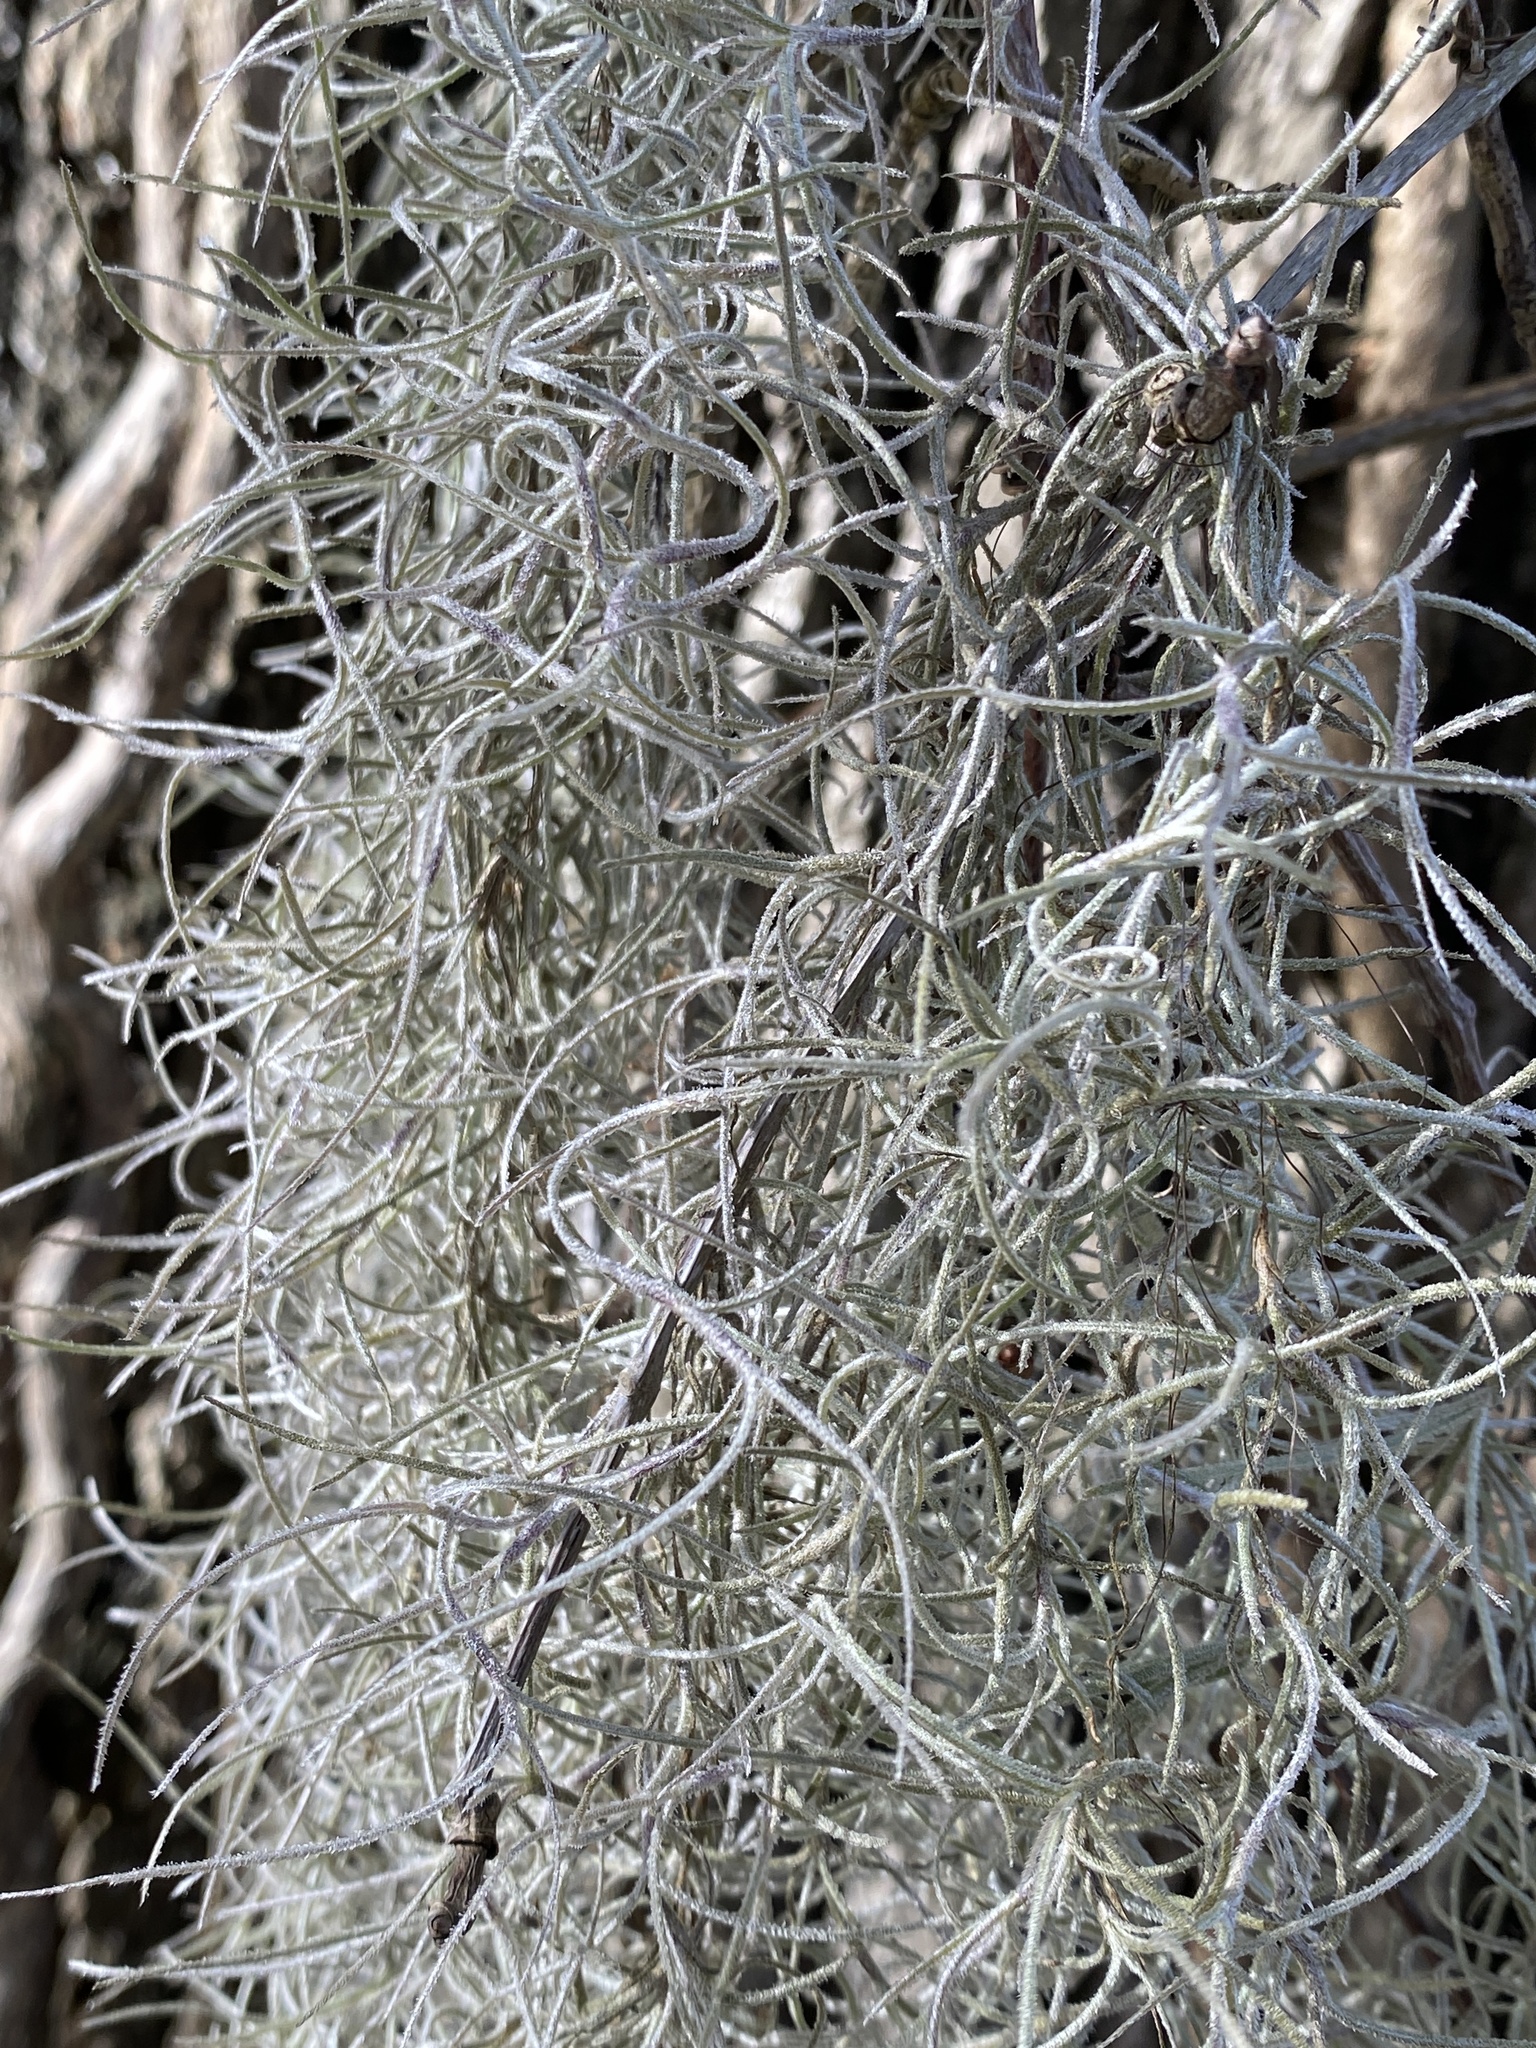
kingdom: Plantae
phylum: Tracheophyta
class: Liliopsida
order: Poales
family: Bromeliaceae
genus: Tillandsia
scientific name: Tillandsia usneoides
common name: Spanish moss
